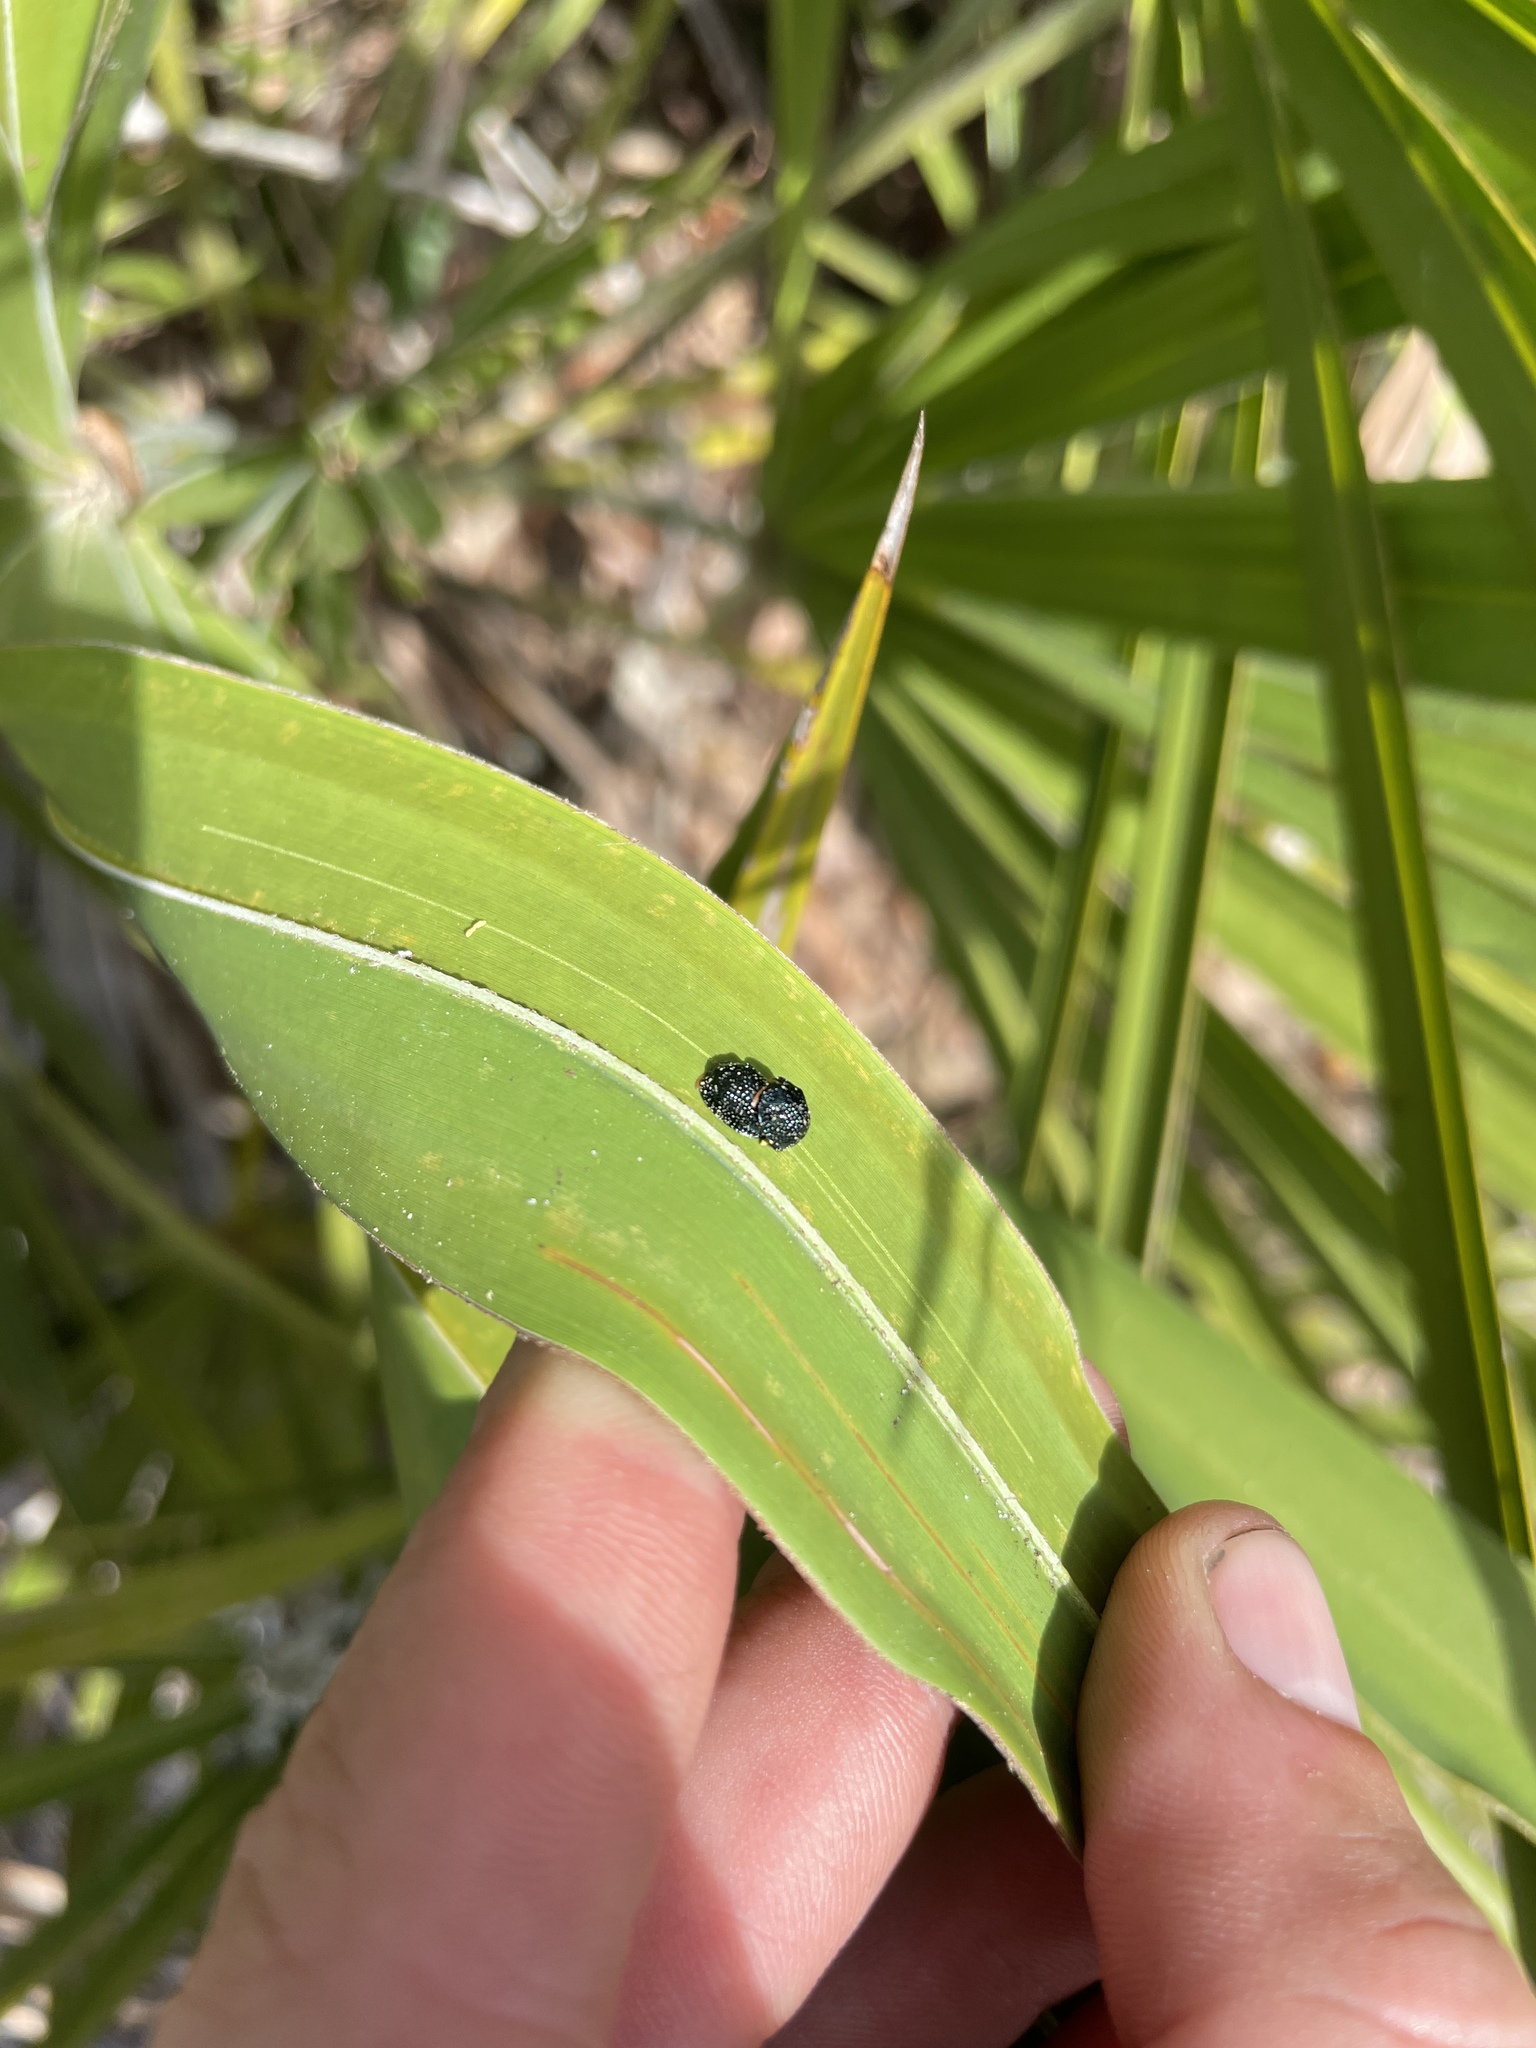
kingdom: Animalia
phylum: Arthropoda
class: Insecta
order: Coleoptera
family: Chrysomelidae
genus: Hemisphaerota
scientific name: Hemisphaerota cyanea
